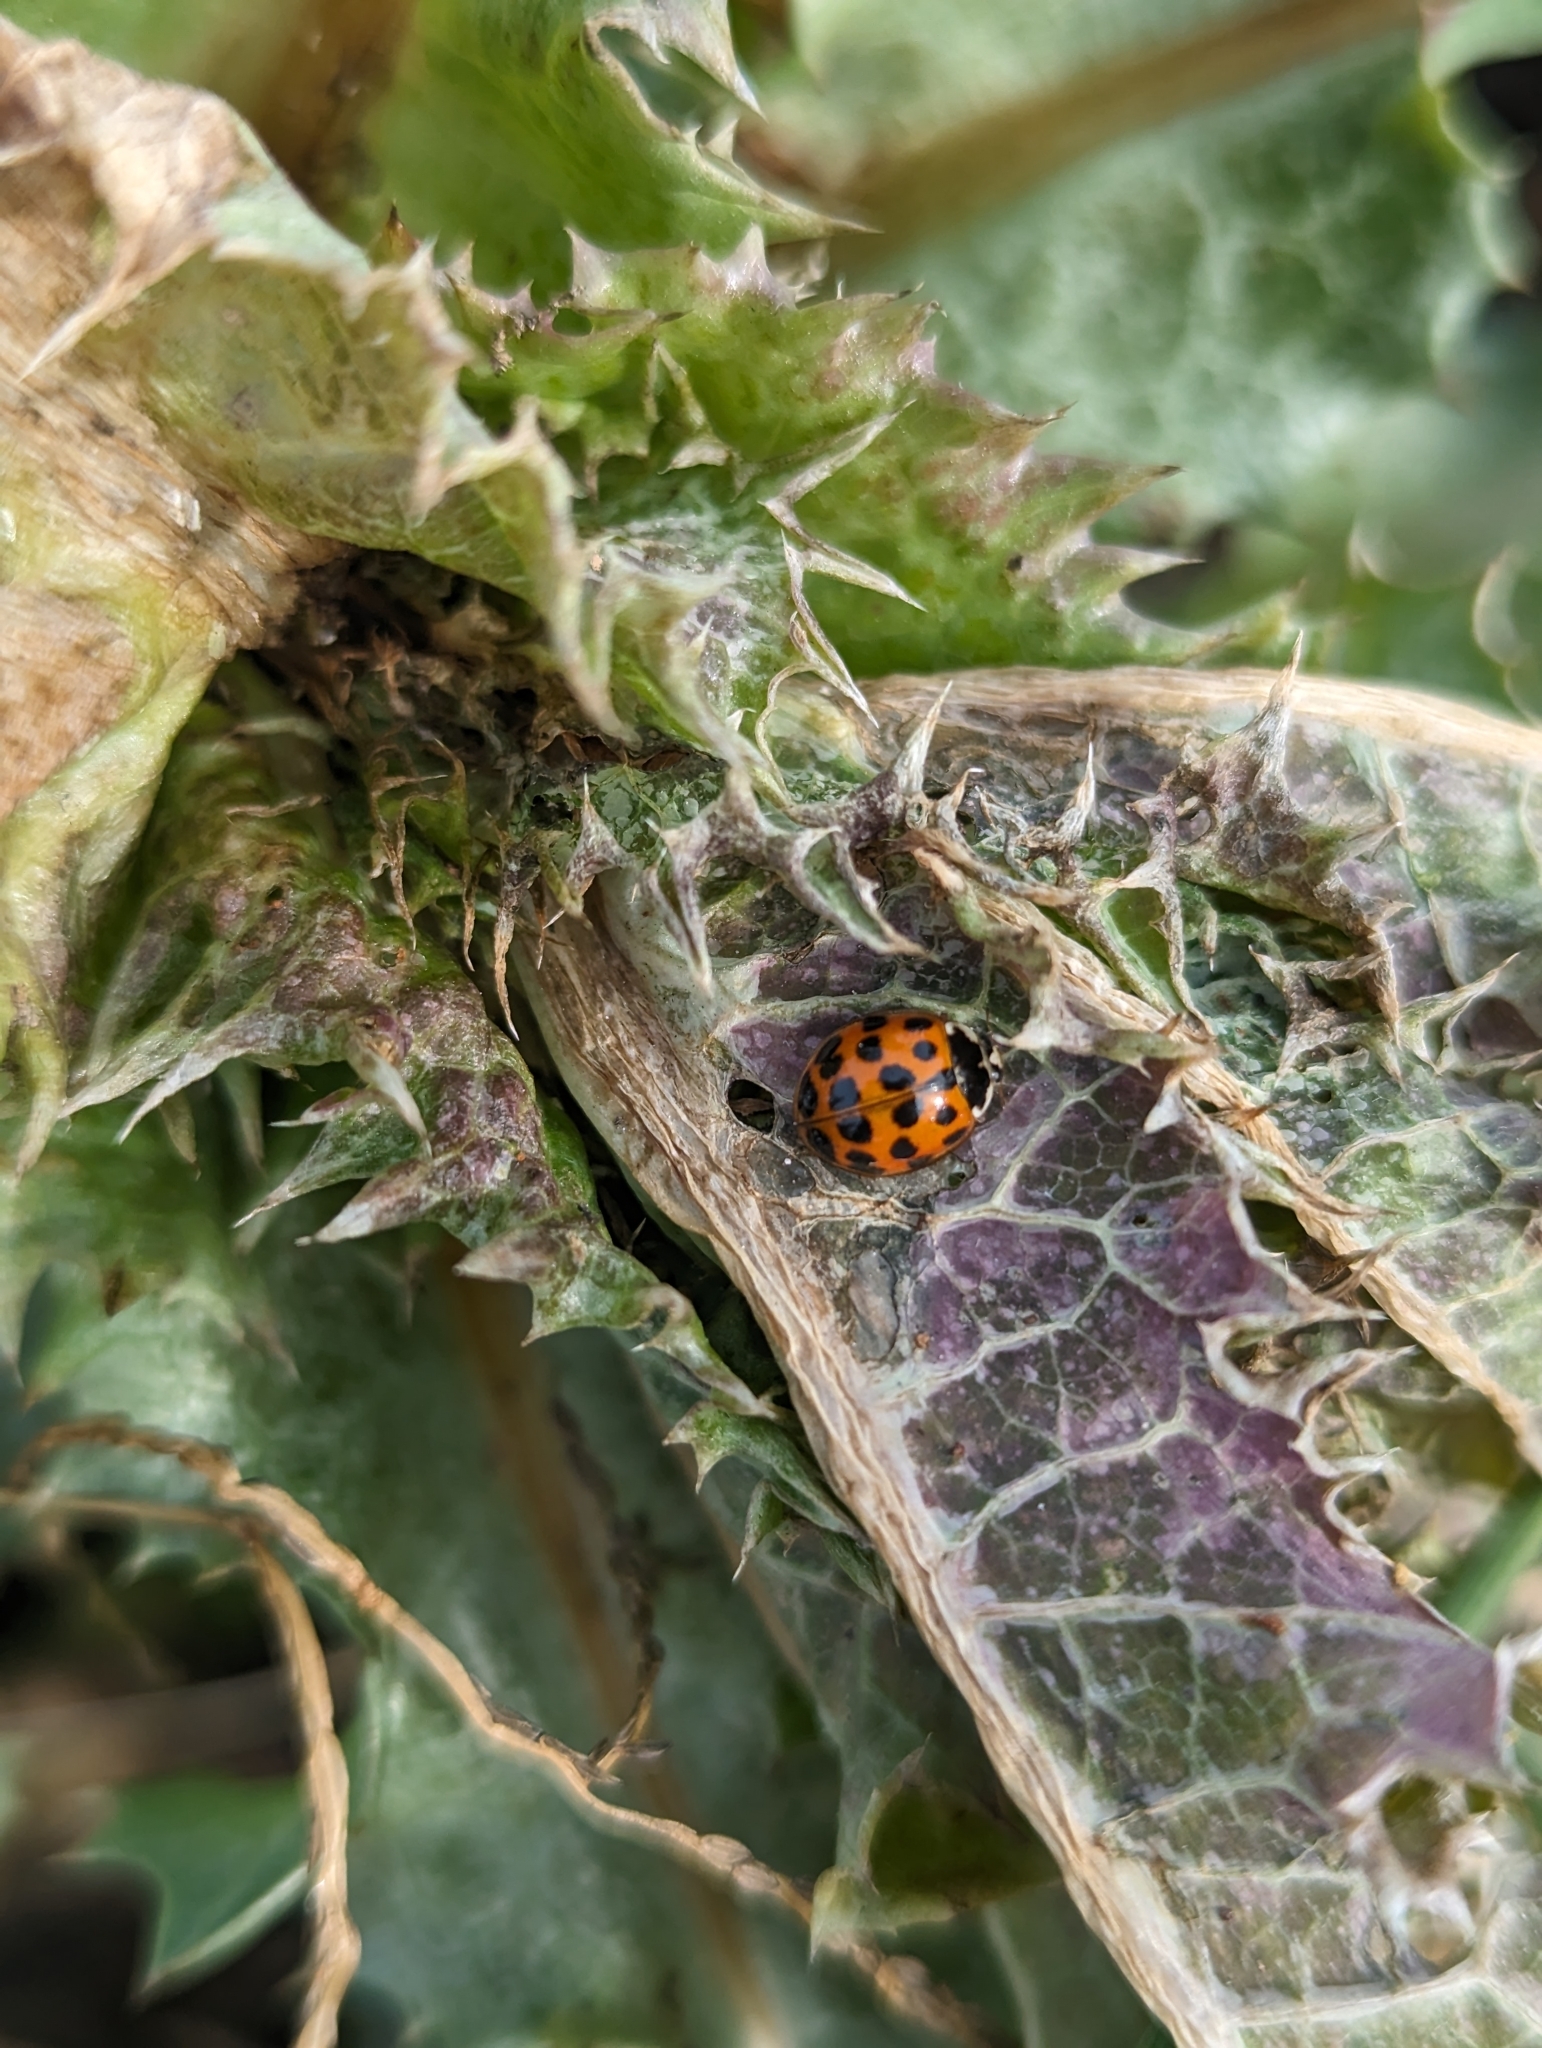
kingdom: Animalia
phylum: Arthropoda
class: Insecta
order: Coleoptera
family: Coccinellidae
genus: Harmonia
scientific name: Harmonia axyridis
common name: Harlequin ladybird
